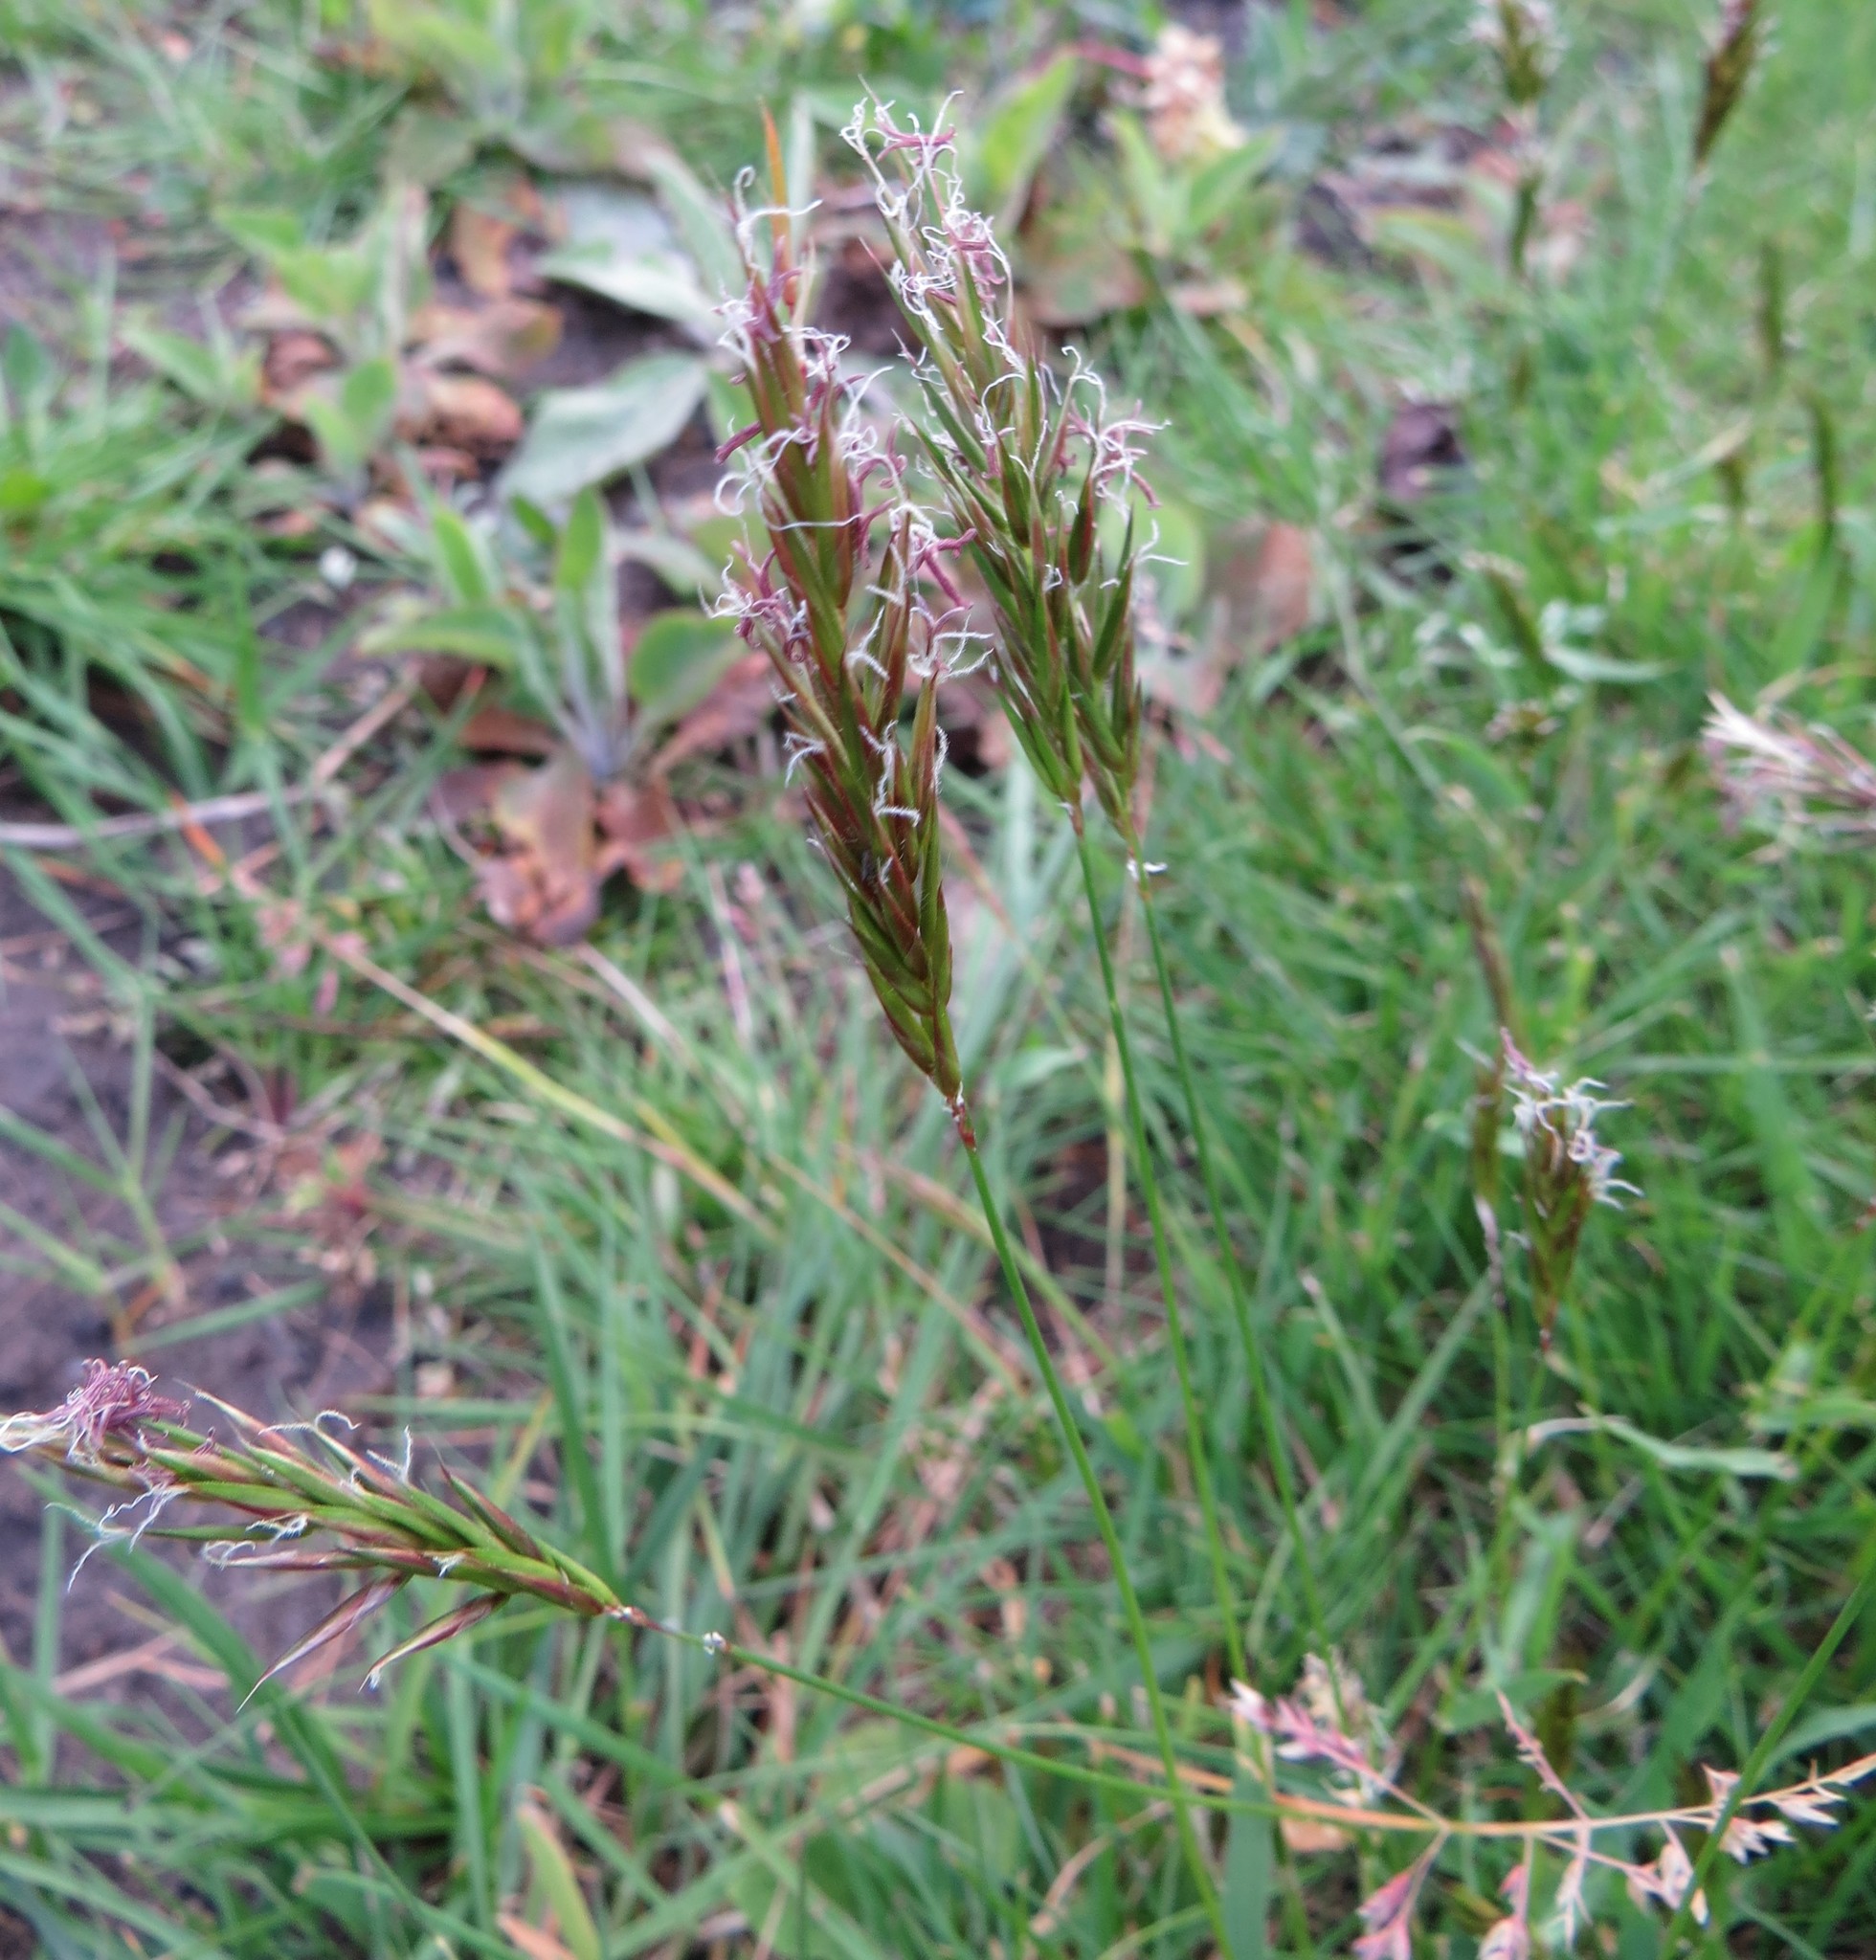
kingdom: Plantae
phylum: Tracheophyta
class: Liliopsida
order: Poales
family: Poaceae
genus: Anthoxanthum
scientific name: Anthoxanthum odoratum
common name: Sweet vernalgrass
